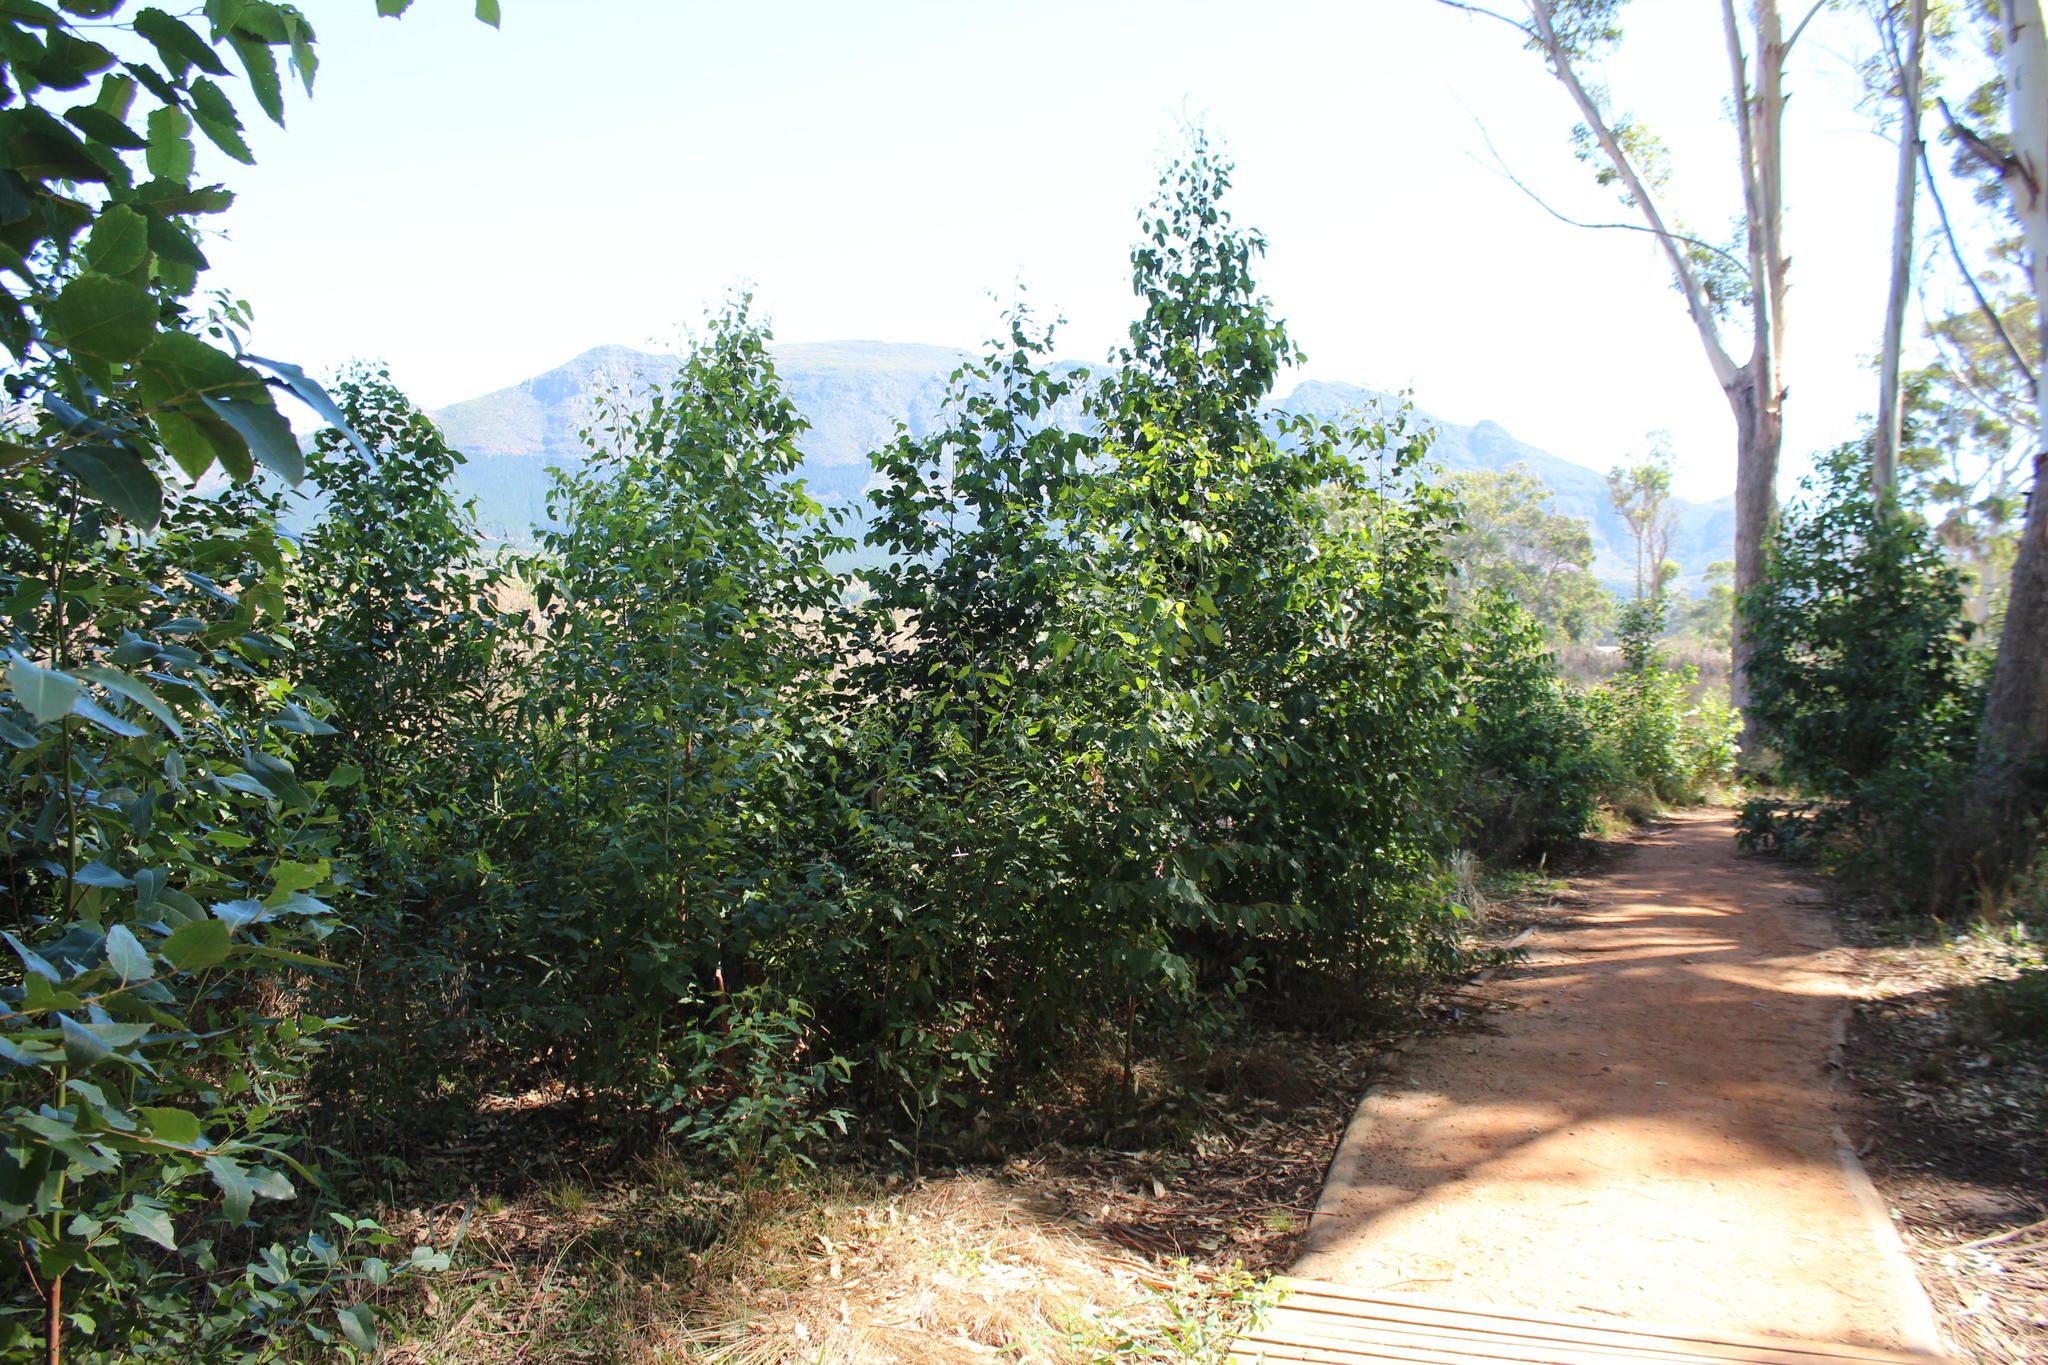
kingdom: Plantae
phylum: Tracheophyta
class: Magnoliopsida
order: Myrtales
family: Myrtaceae
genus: Eucalyptus
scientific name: Eucalyptus grandis
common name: Grand eucalyptus
